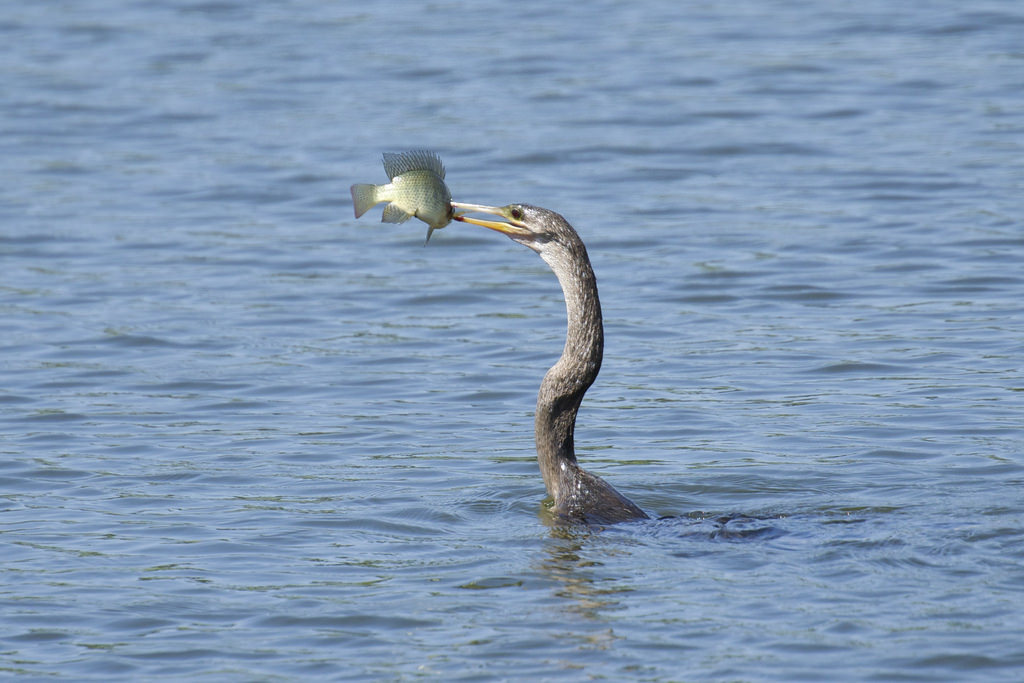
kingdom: Animalia
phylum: Chordata
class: Aves
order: Suliformes
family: Anhingidae
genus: Anhinga
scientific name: Anhinga anhinga
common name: Anhinga
